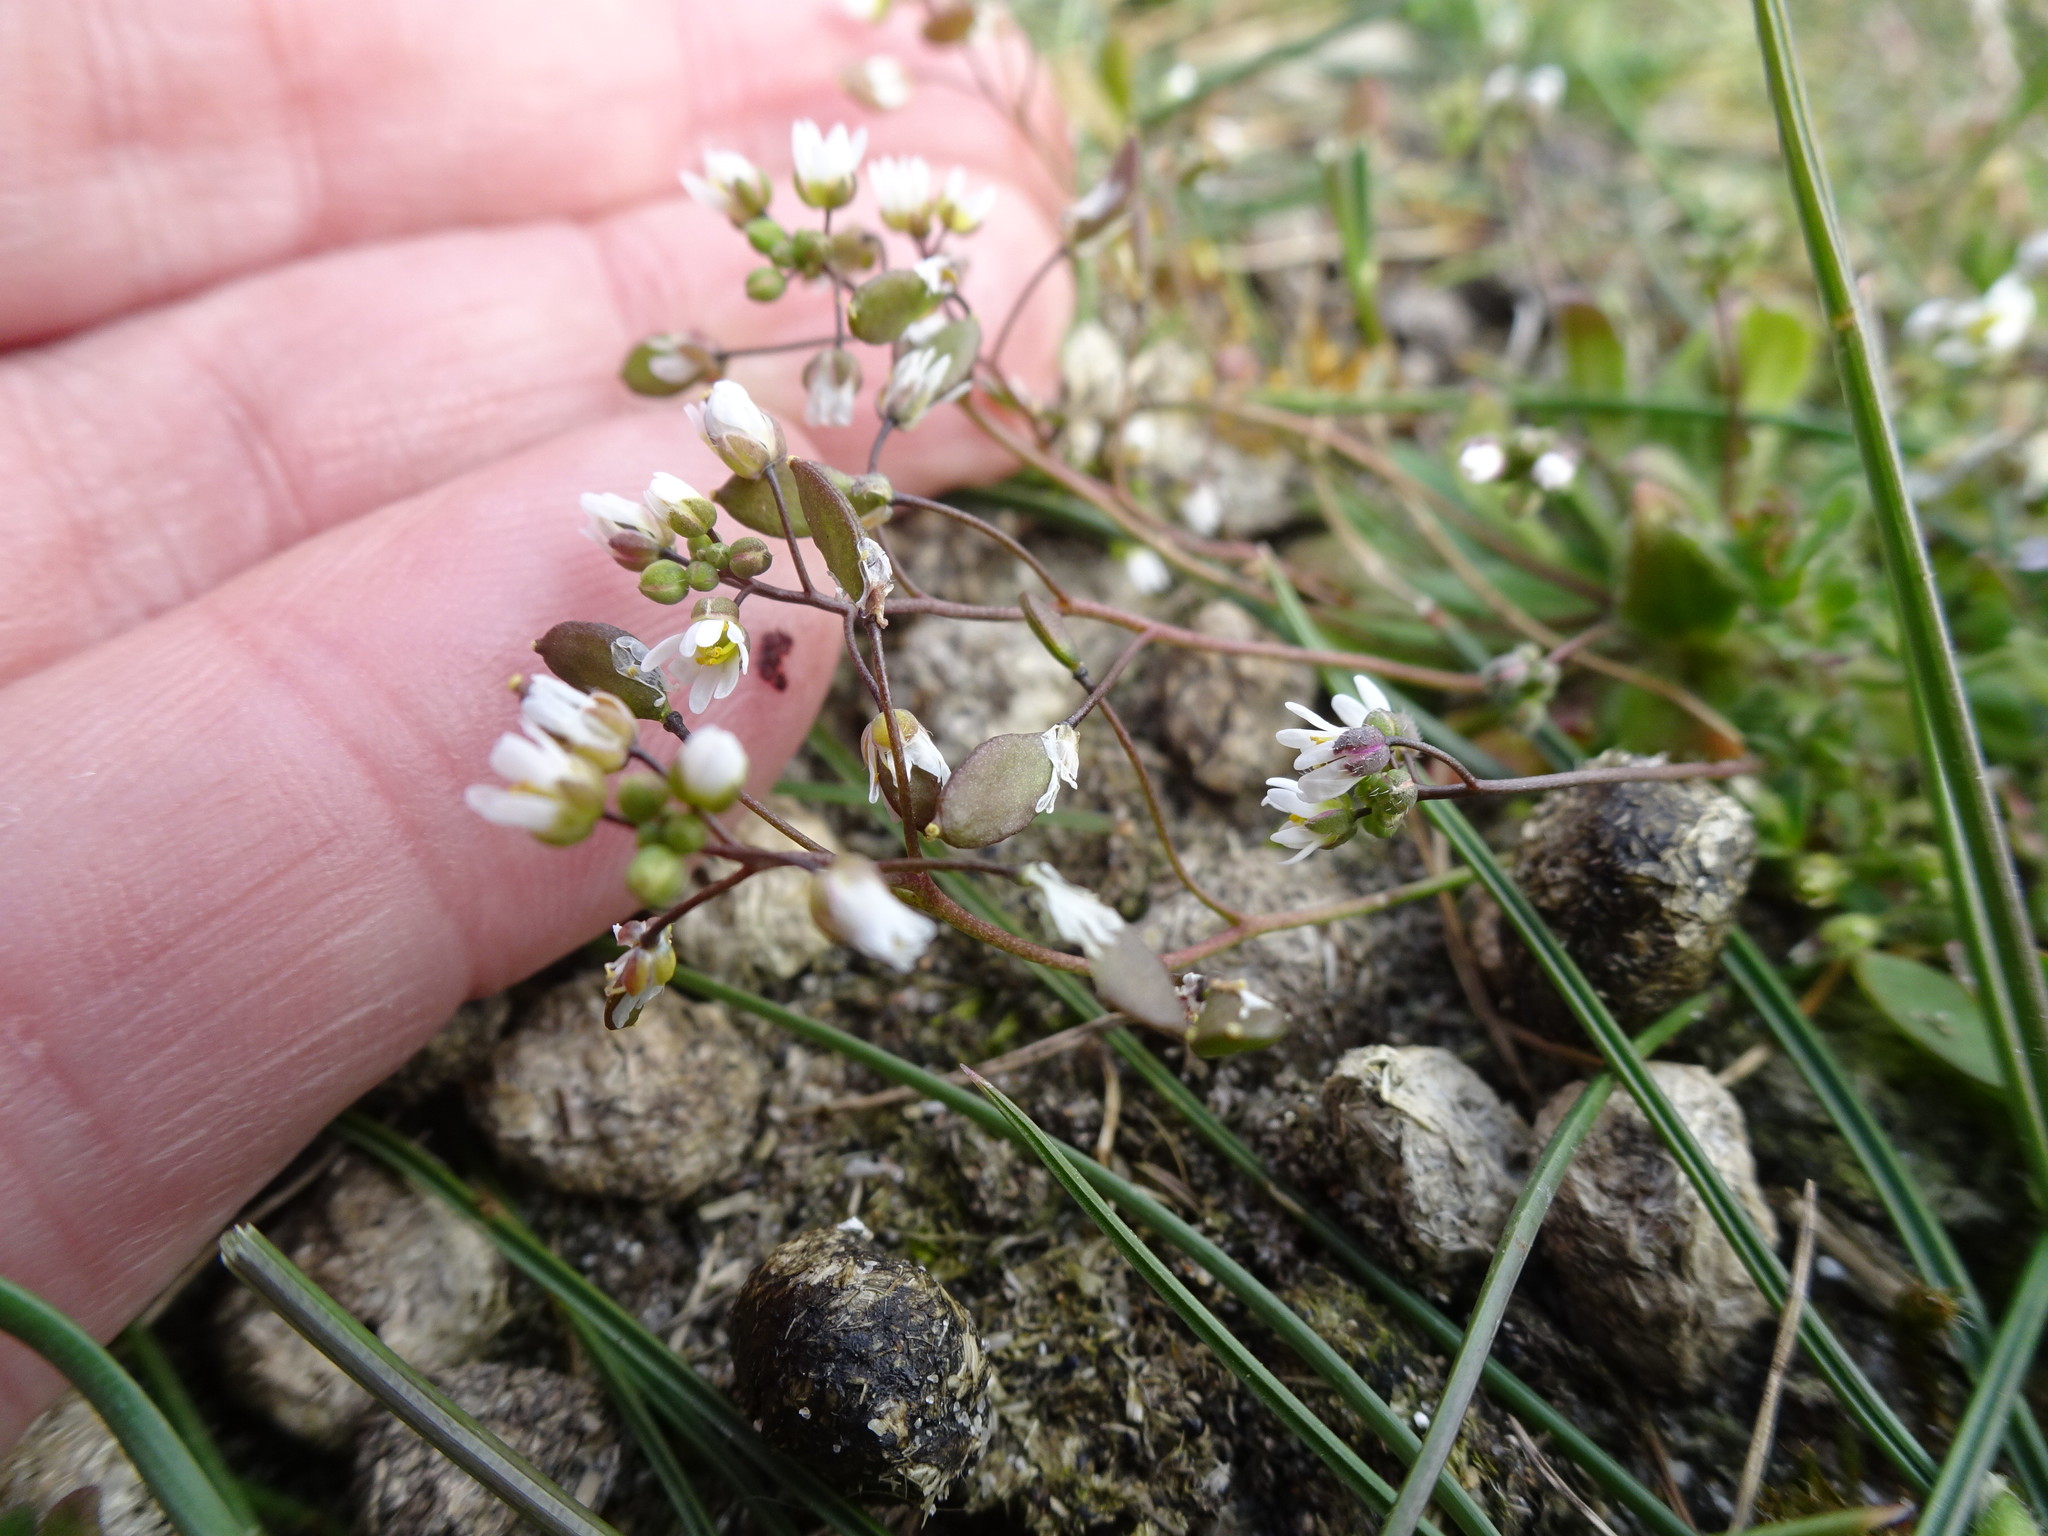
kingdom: Plantae
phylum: Tracheophyta
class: Magnoliopsida
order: Brassicales
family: Brassicaceae
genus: Draba
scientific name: Draba verna
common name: Spring draba
